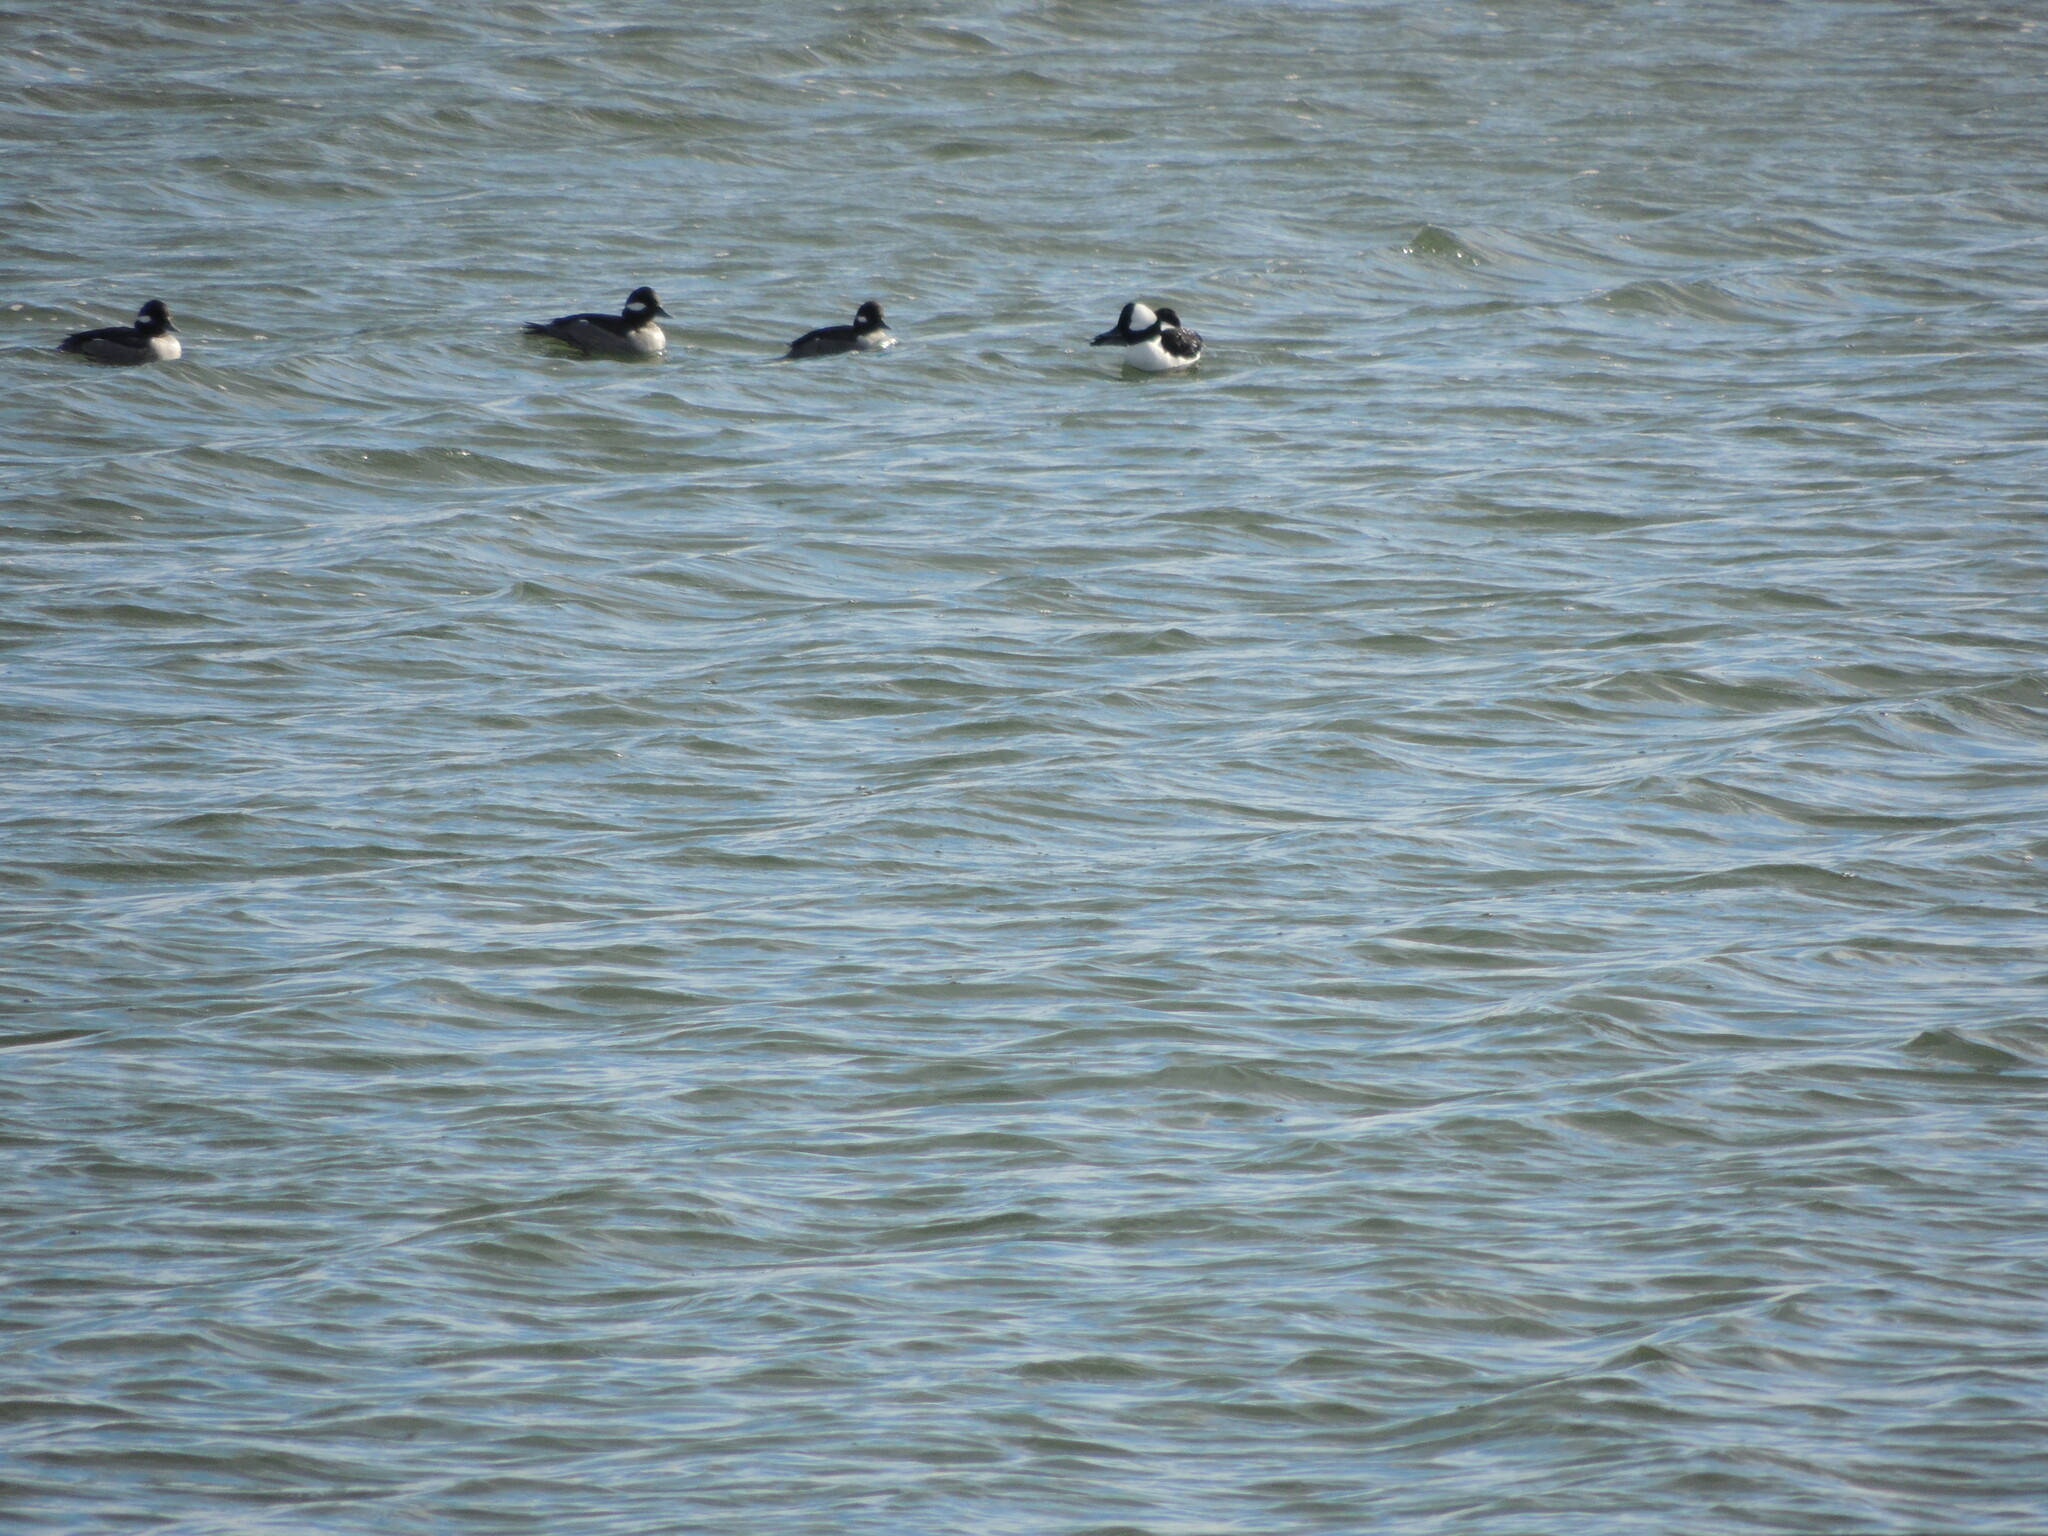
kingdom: Animalia
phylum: Chordata
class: Aves
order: Anseriformes
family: Anatidae
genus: Bucephala
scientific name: Bucephala albeola
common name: Bufflehead
